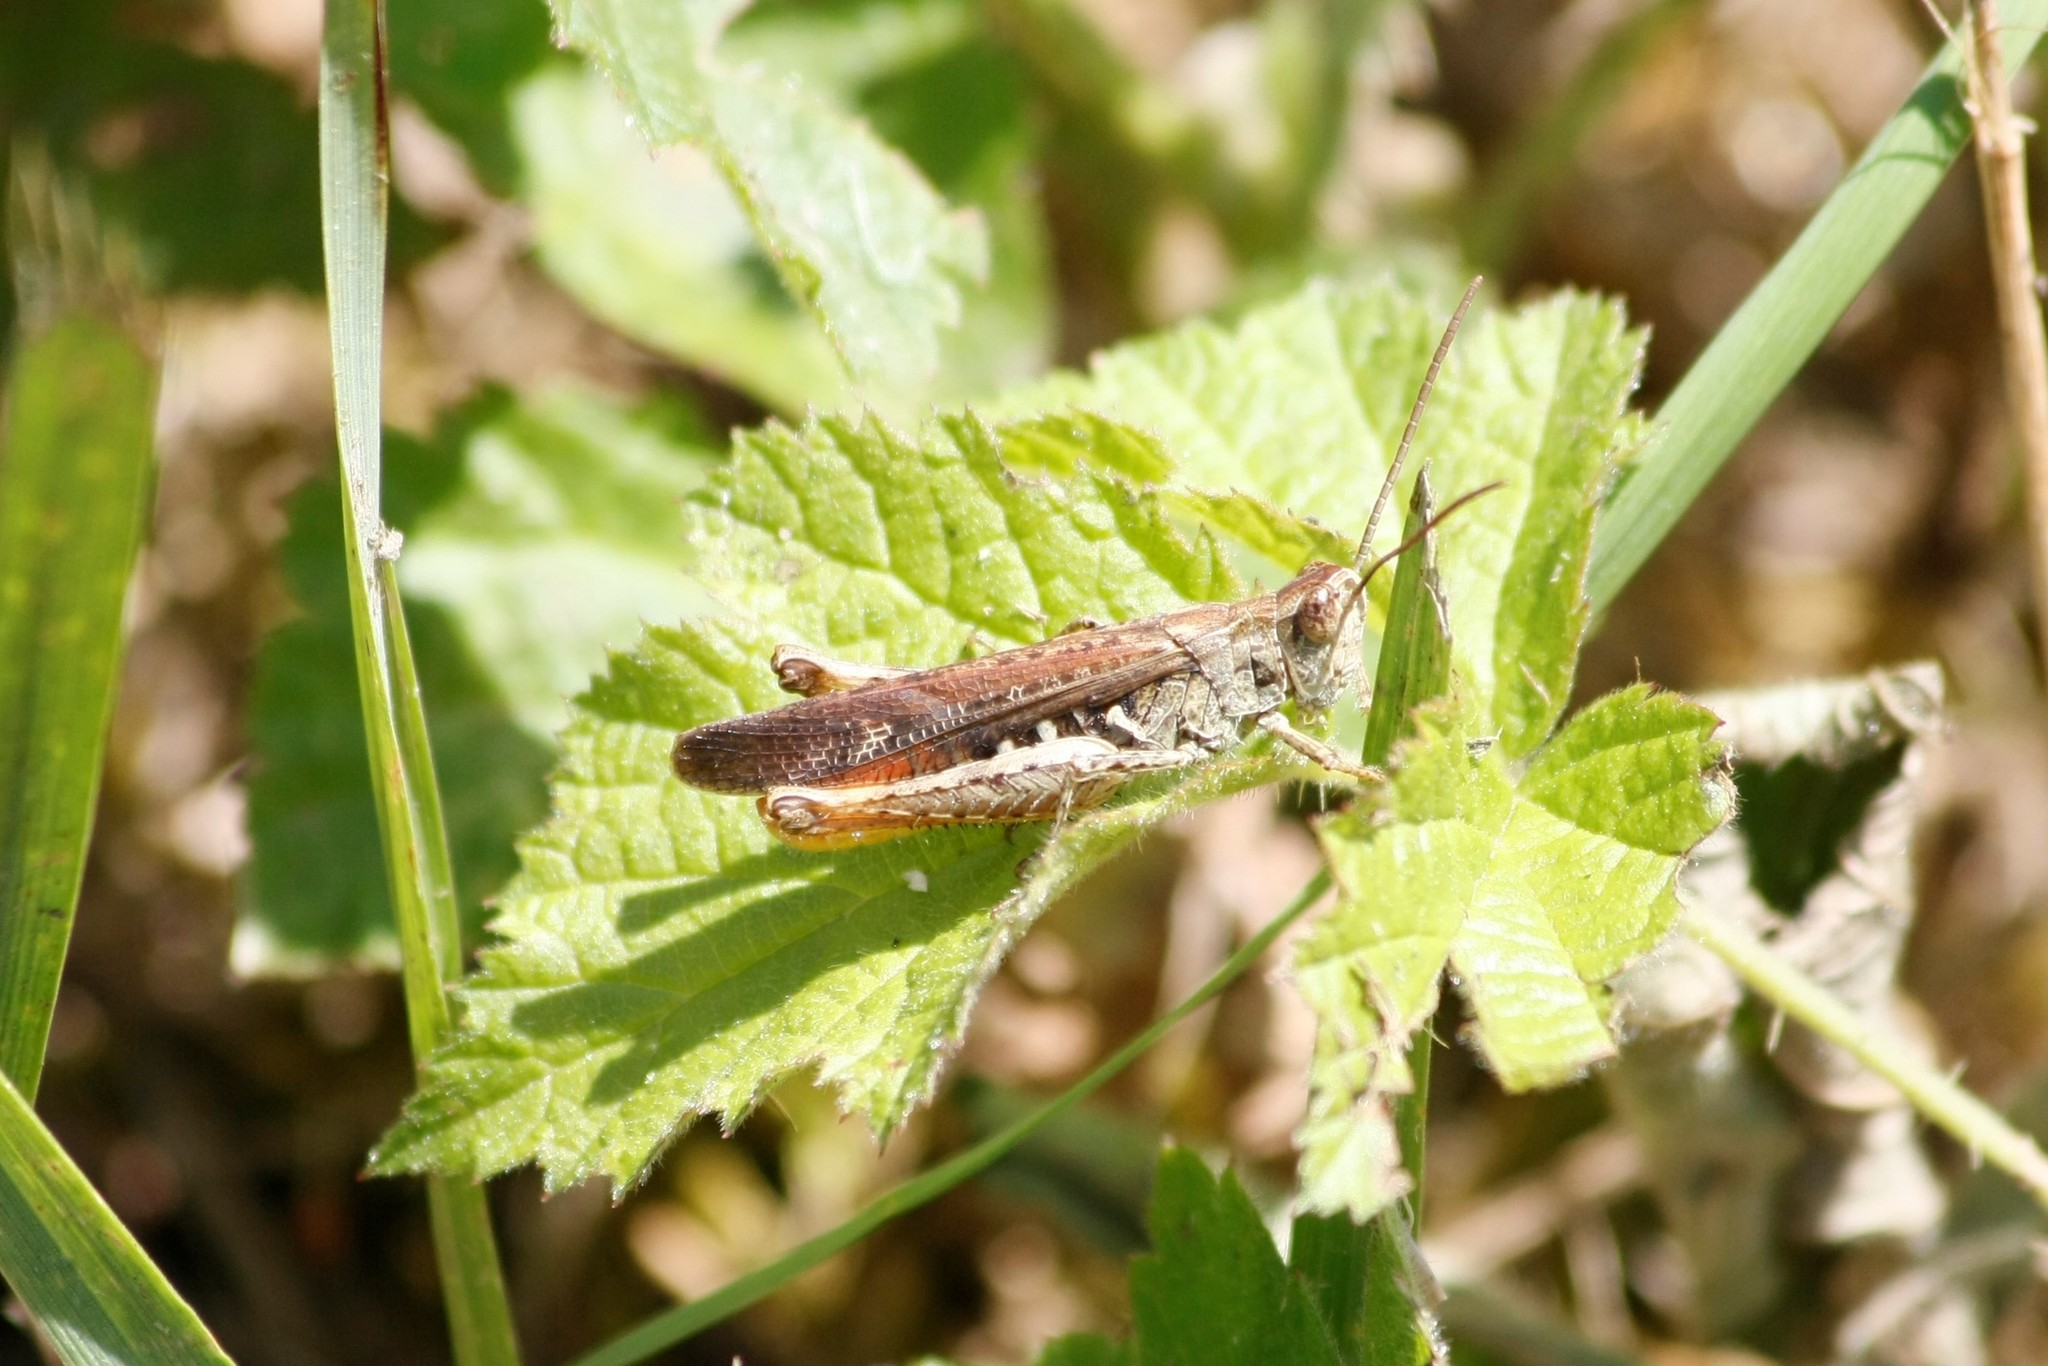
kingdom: Animalia
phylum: Arthropoda
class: Insecta
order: Orthoptera
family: Acrididae
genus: Chorthippus
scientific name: Chorthippus brunneus
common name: Field grasshopper
